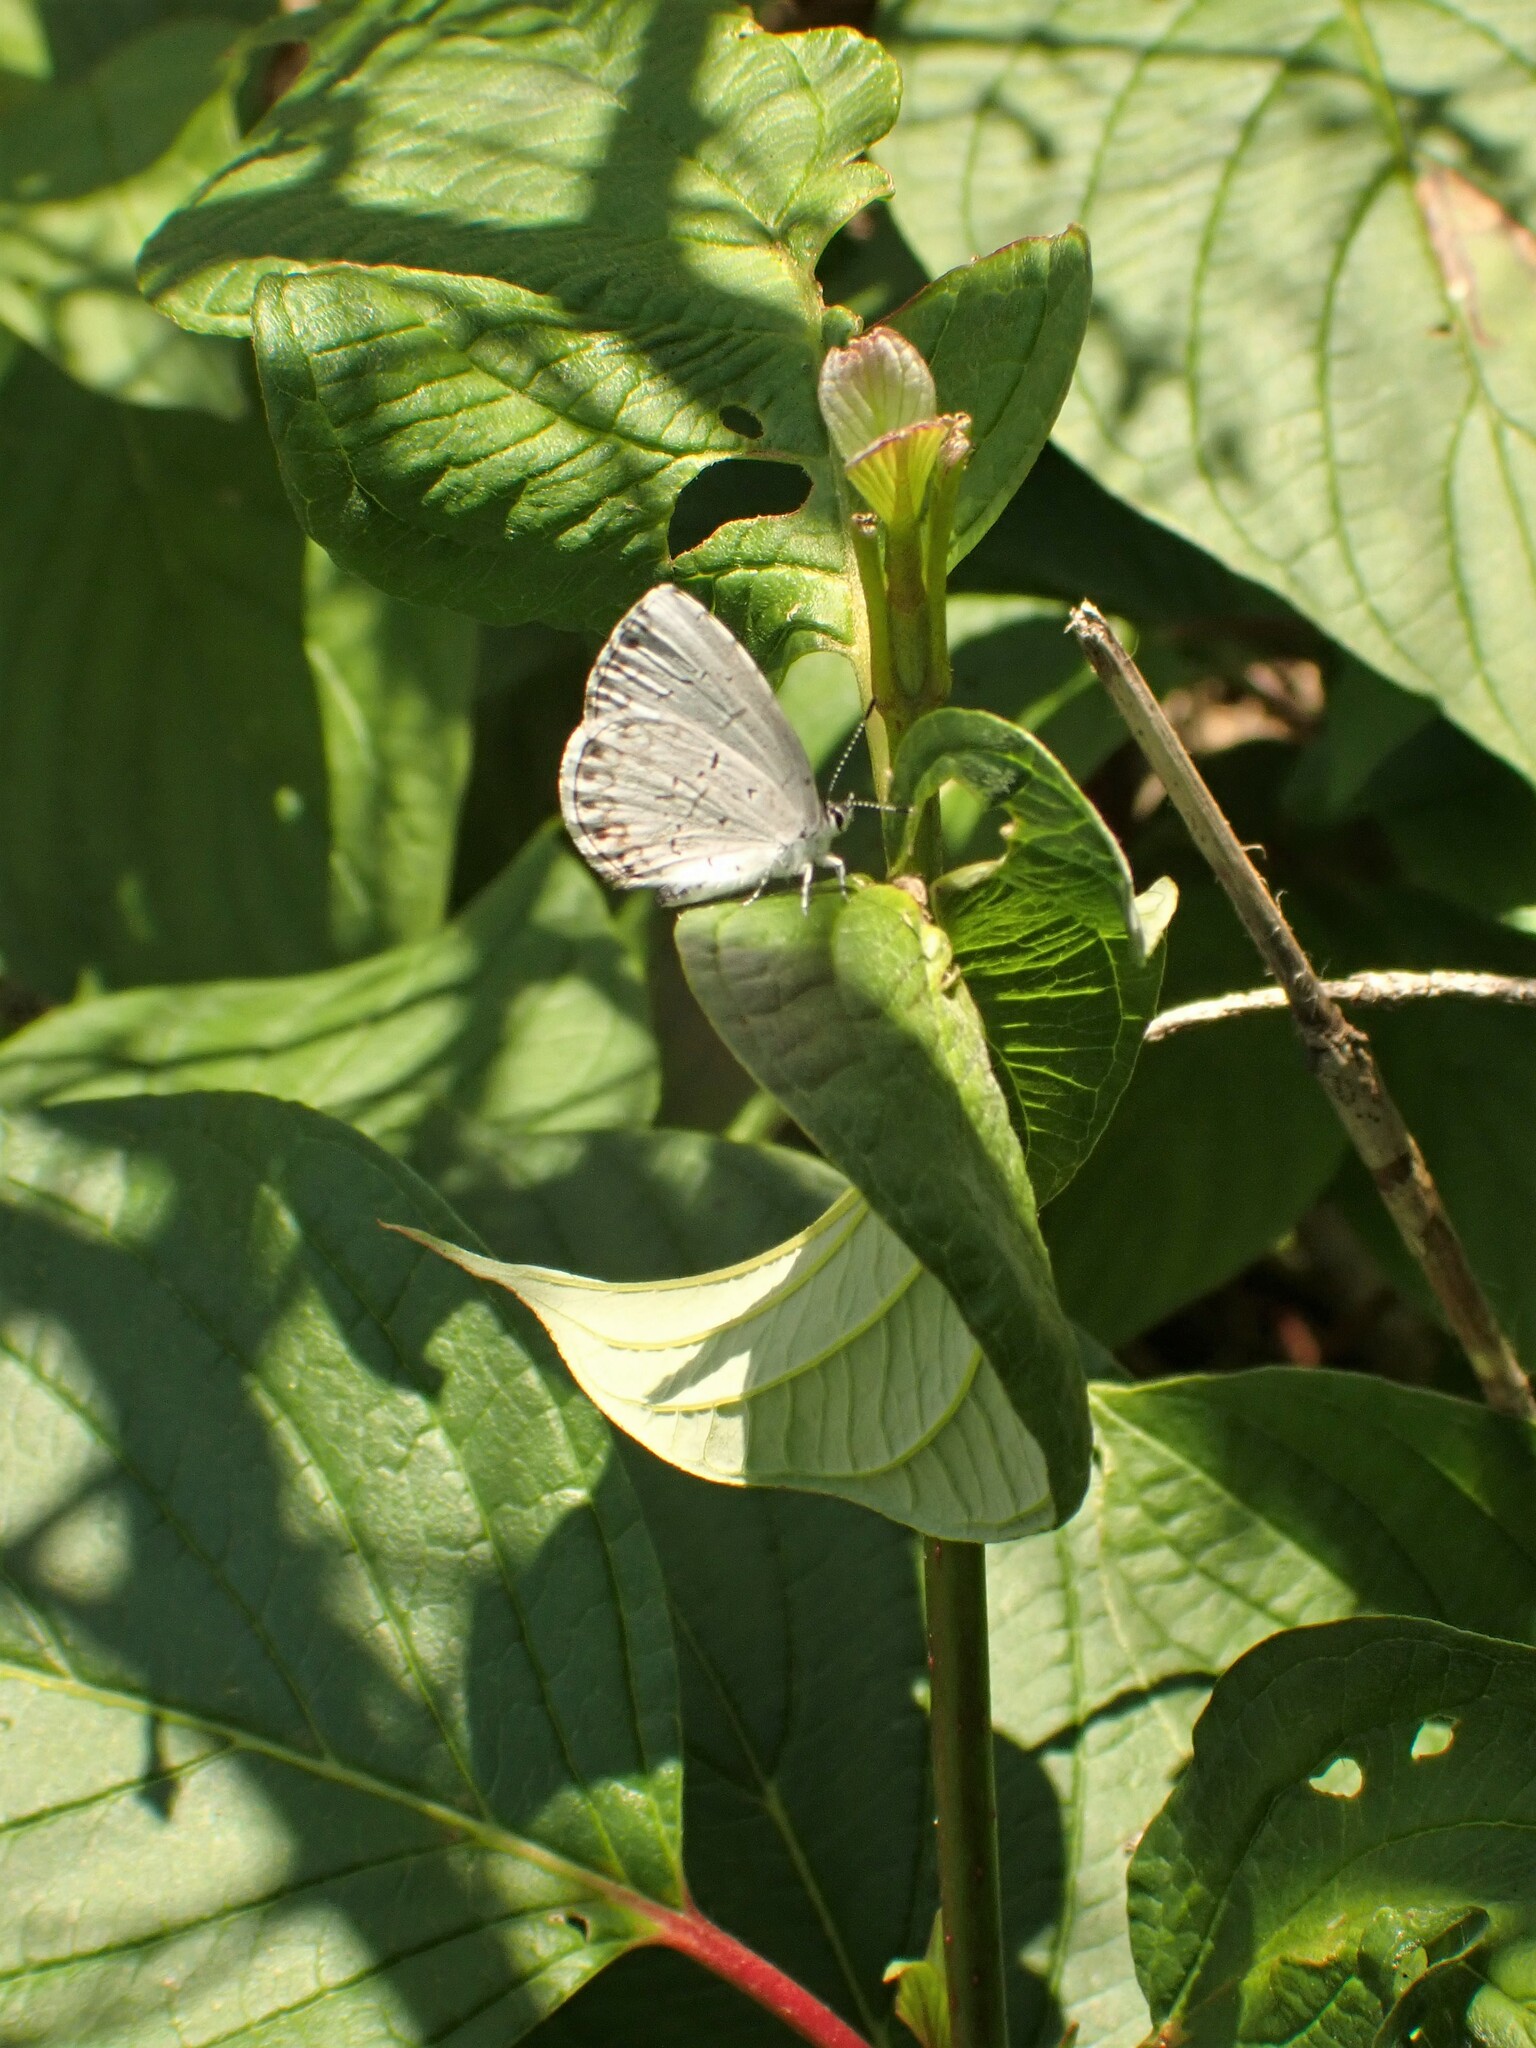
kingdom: Animalia
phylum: Arthropoda
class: Insecta
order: Lepidoptera
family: Lycaenidae
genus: Celastrina
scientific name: Celastrina lucia
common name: Lucia azure
